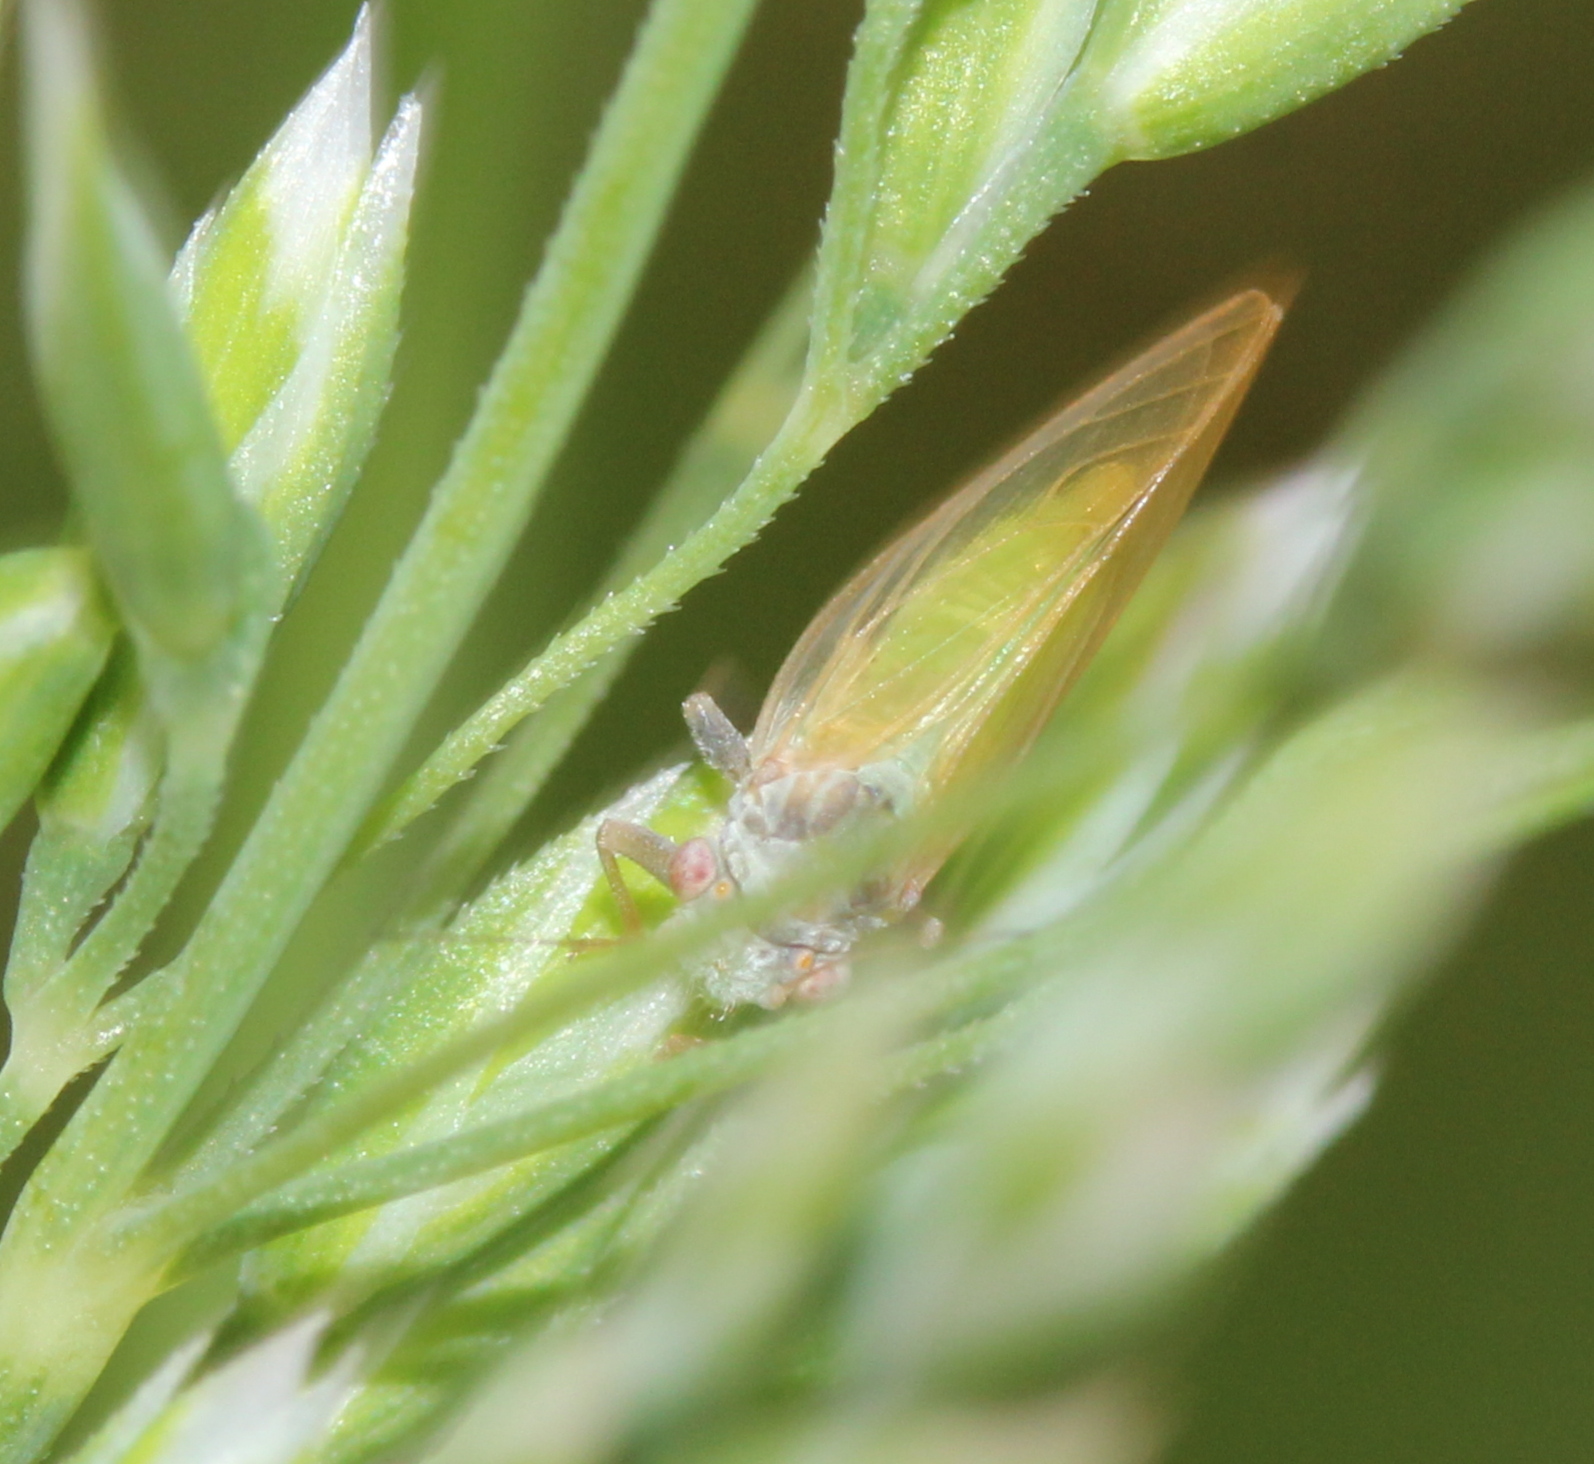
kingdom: Animalia
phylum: Arthropoda
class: Insecta
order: Hemiptera
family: Psyllidae
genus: Psylla
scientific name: Psylla buxi
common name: Boxwood psyllid
